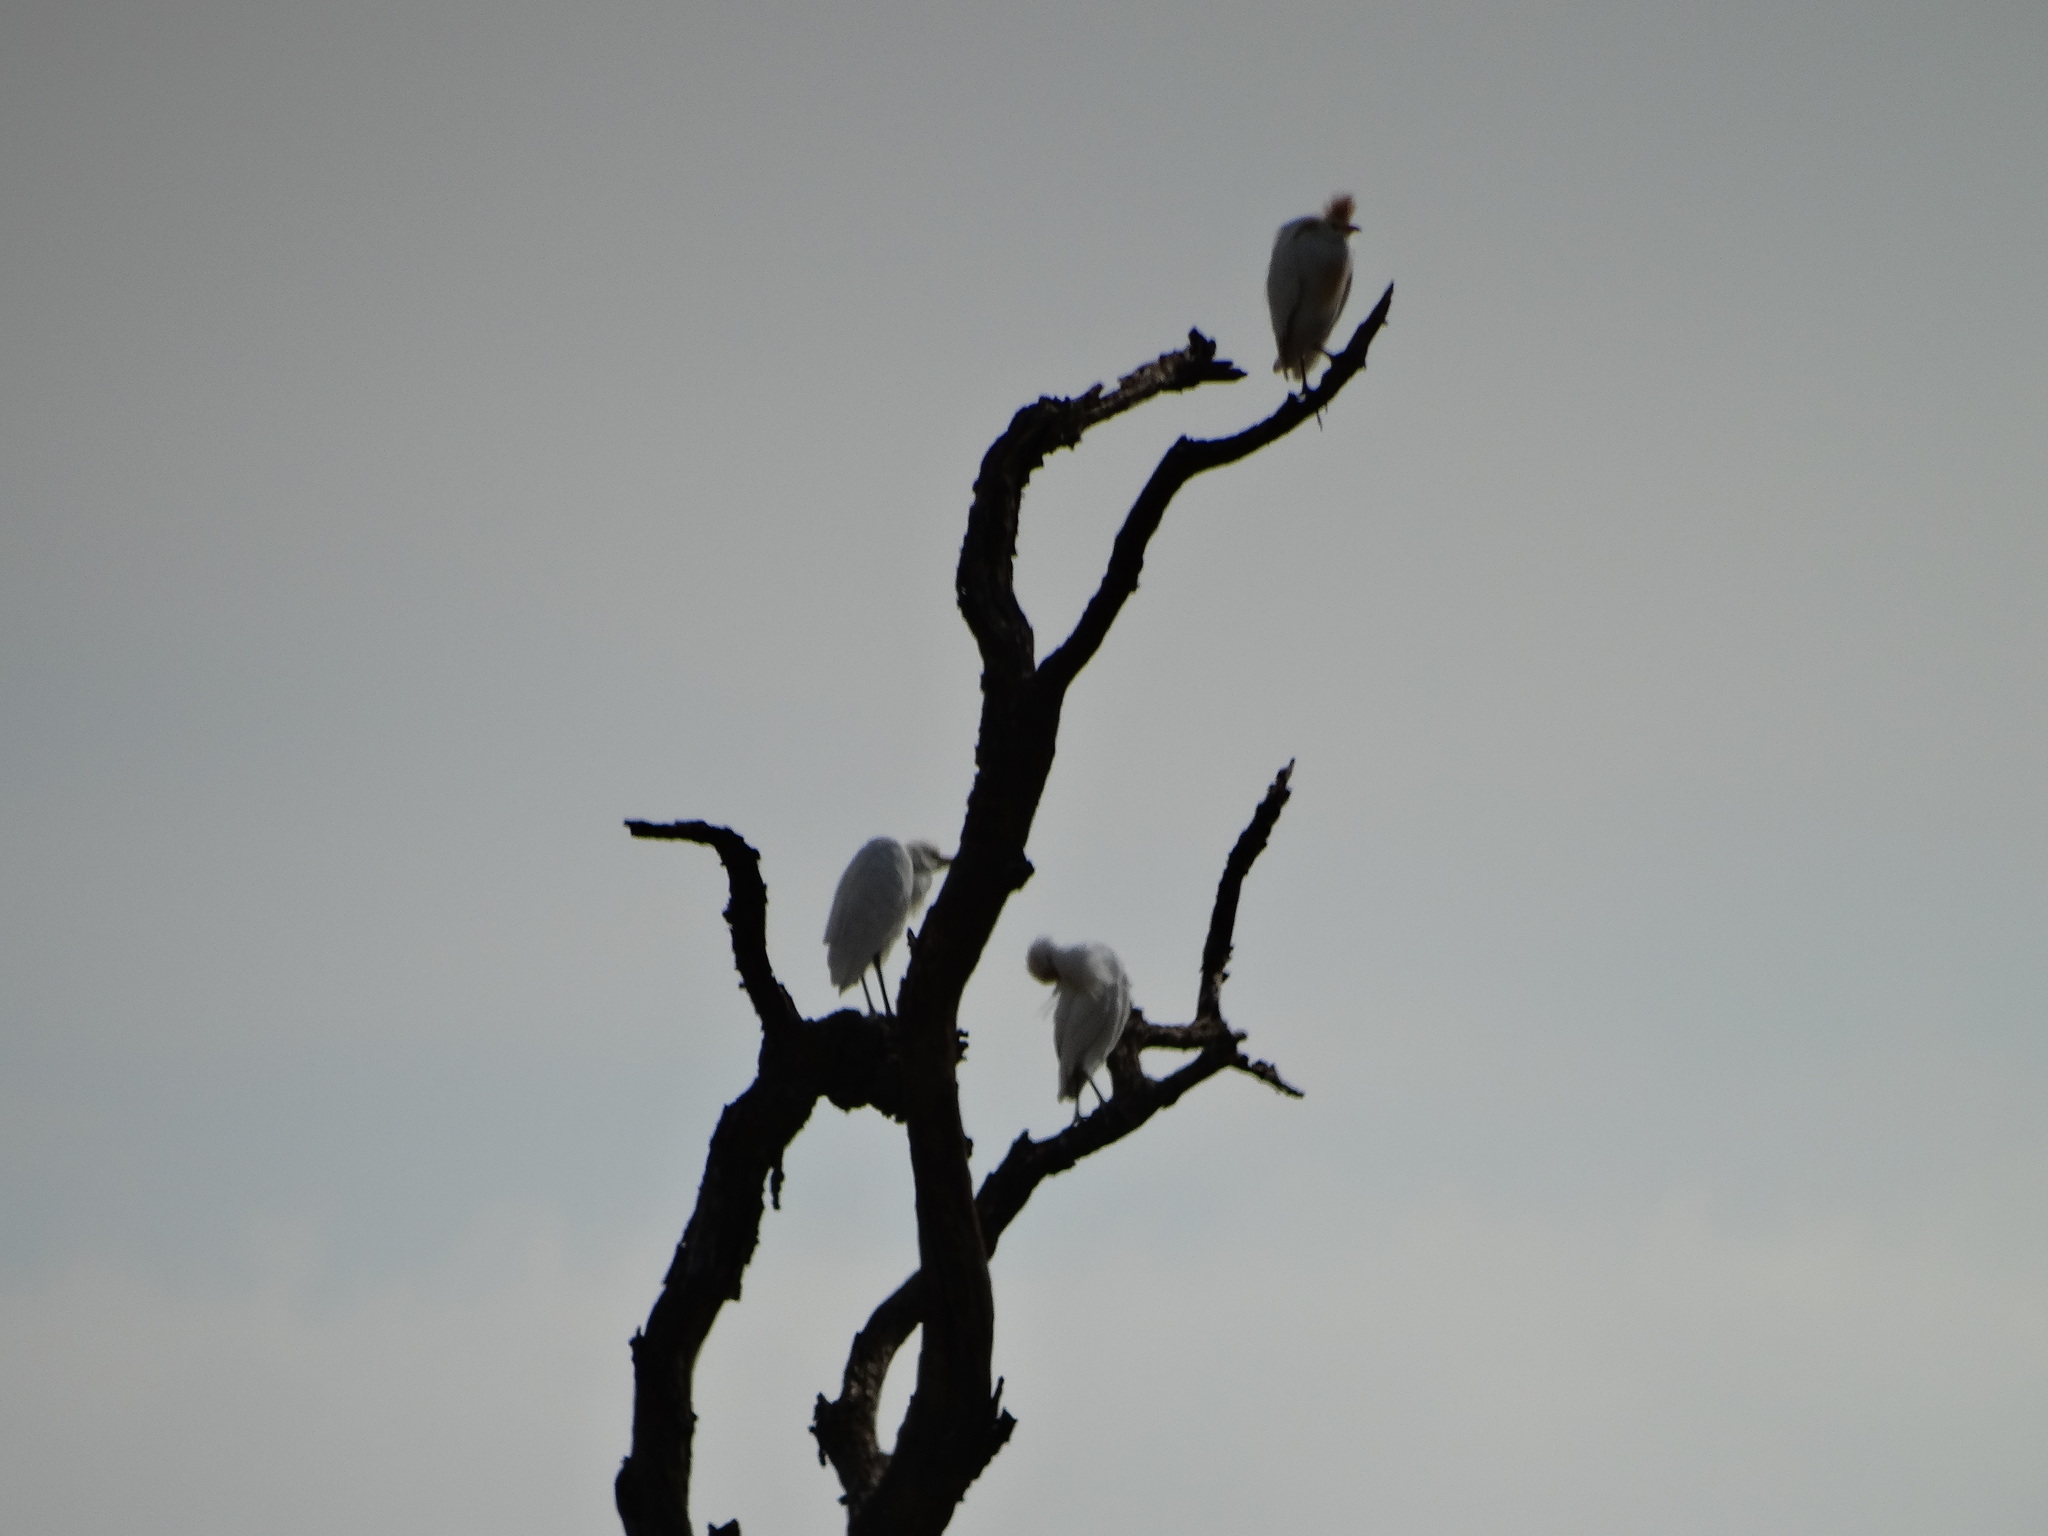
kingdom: Animalia
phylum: Chordata
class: Aves
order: Pelecaniformes
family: Ardeidae
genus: Bubulcus
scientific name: Bubulcus ibis
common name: Cattle egret
